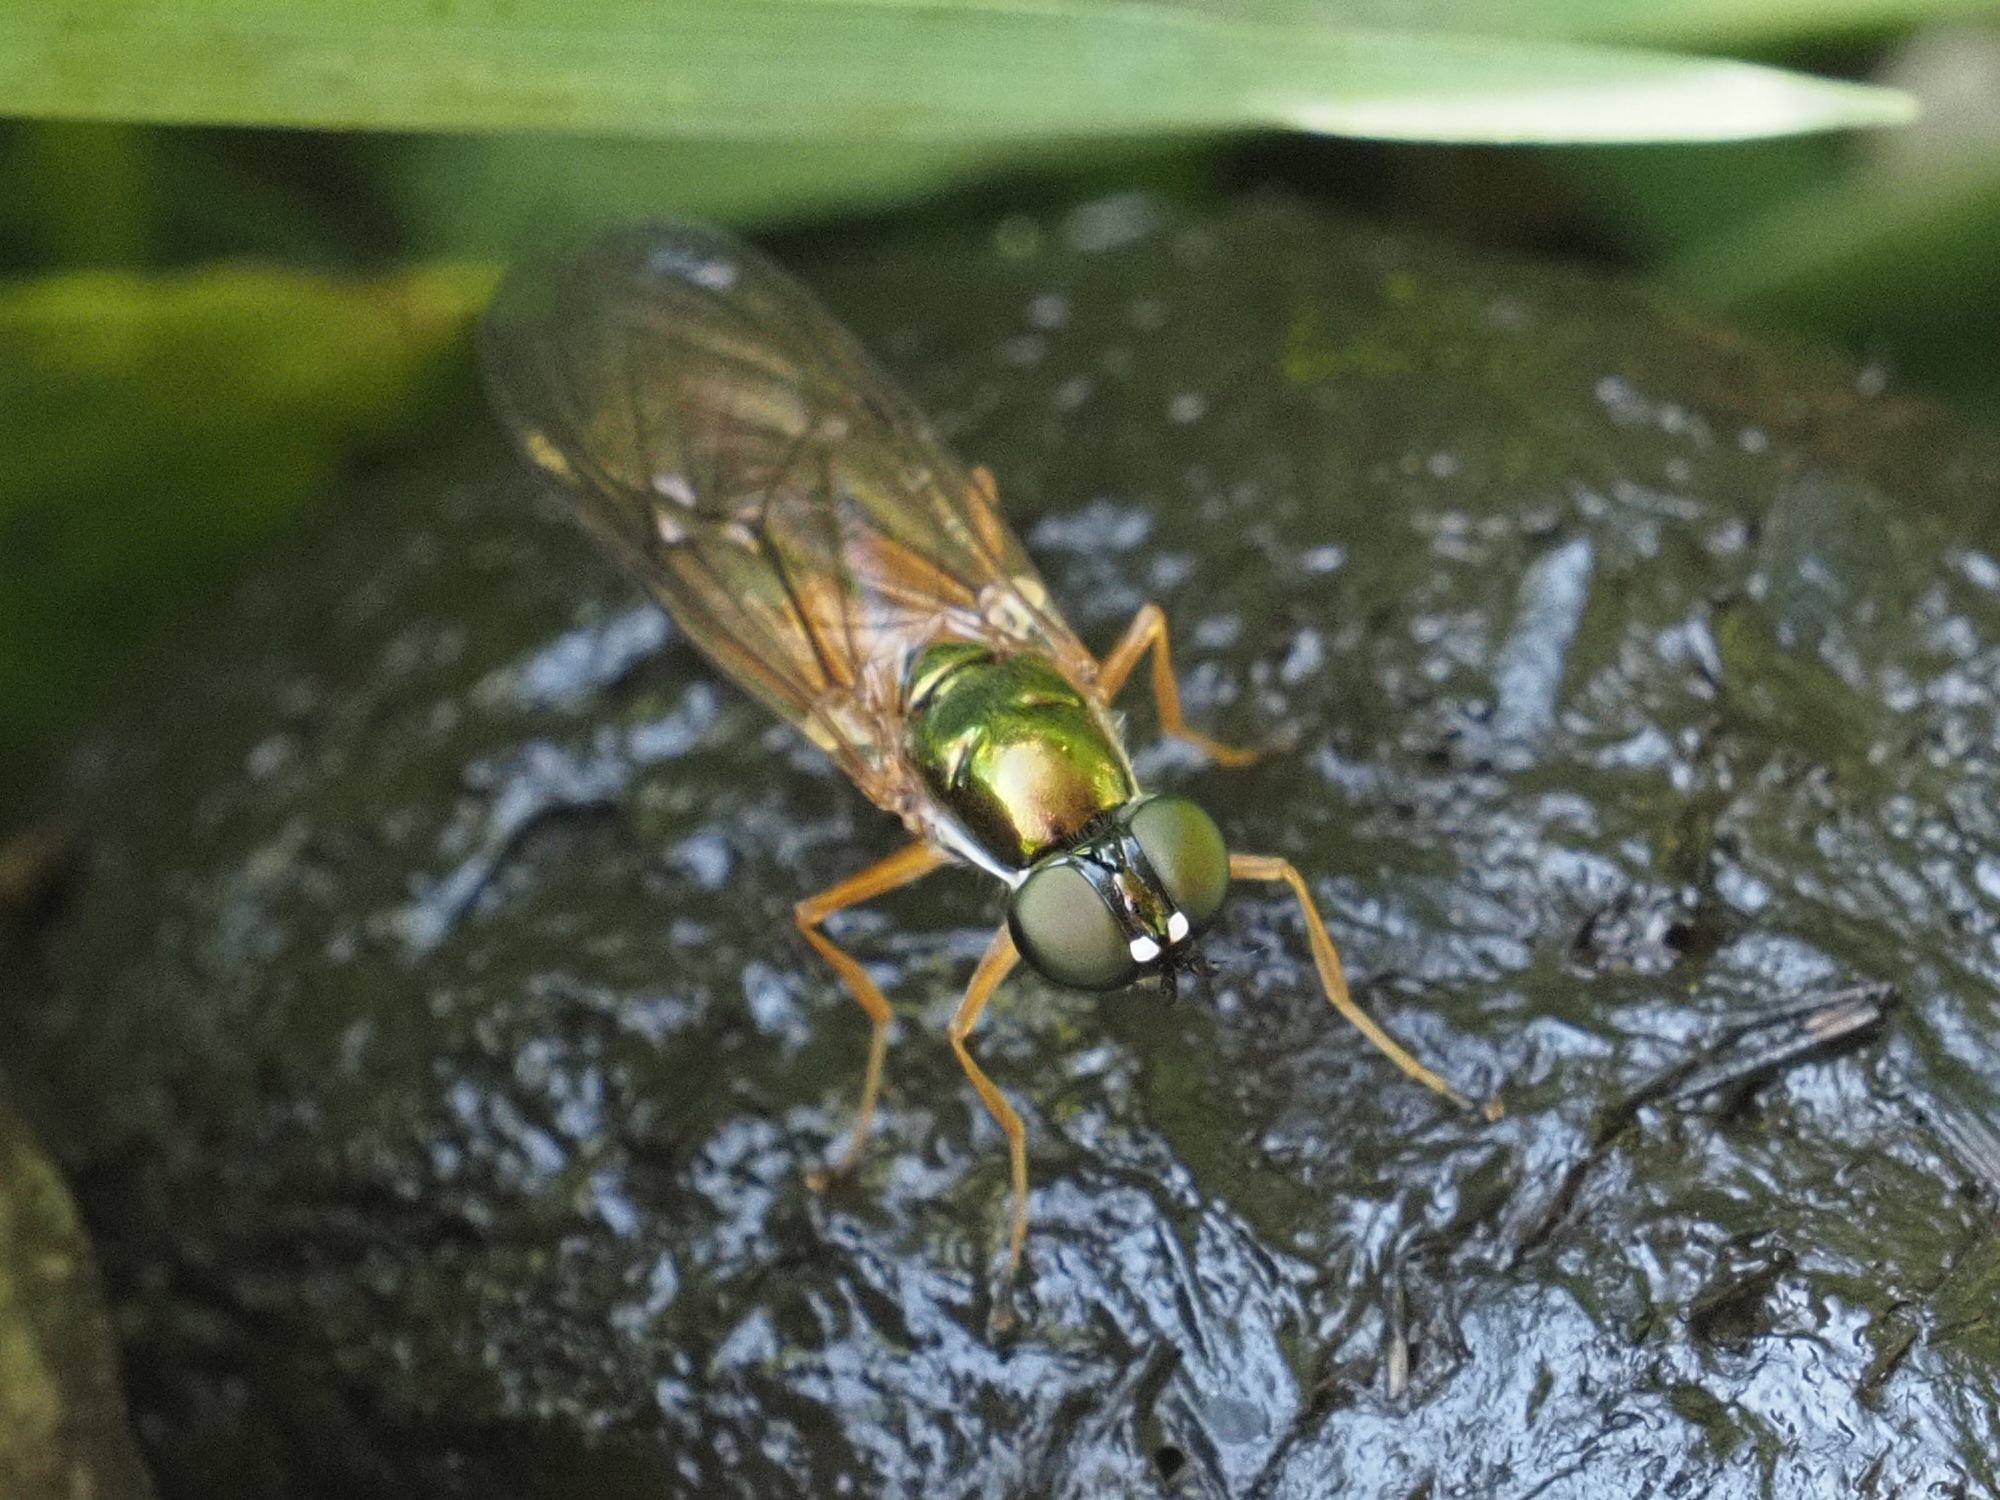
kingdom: Animalia
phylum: Arthropoda
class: Insecta
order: Diptera
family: Stratiomyidae
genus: Sargus
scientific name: Sargus bipunctatus
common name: Twin-spot centurion
